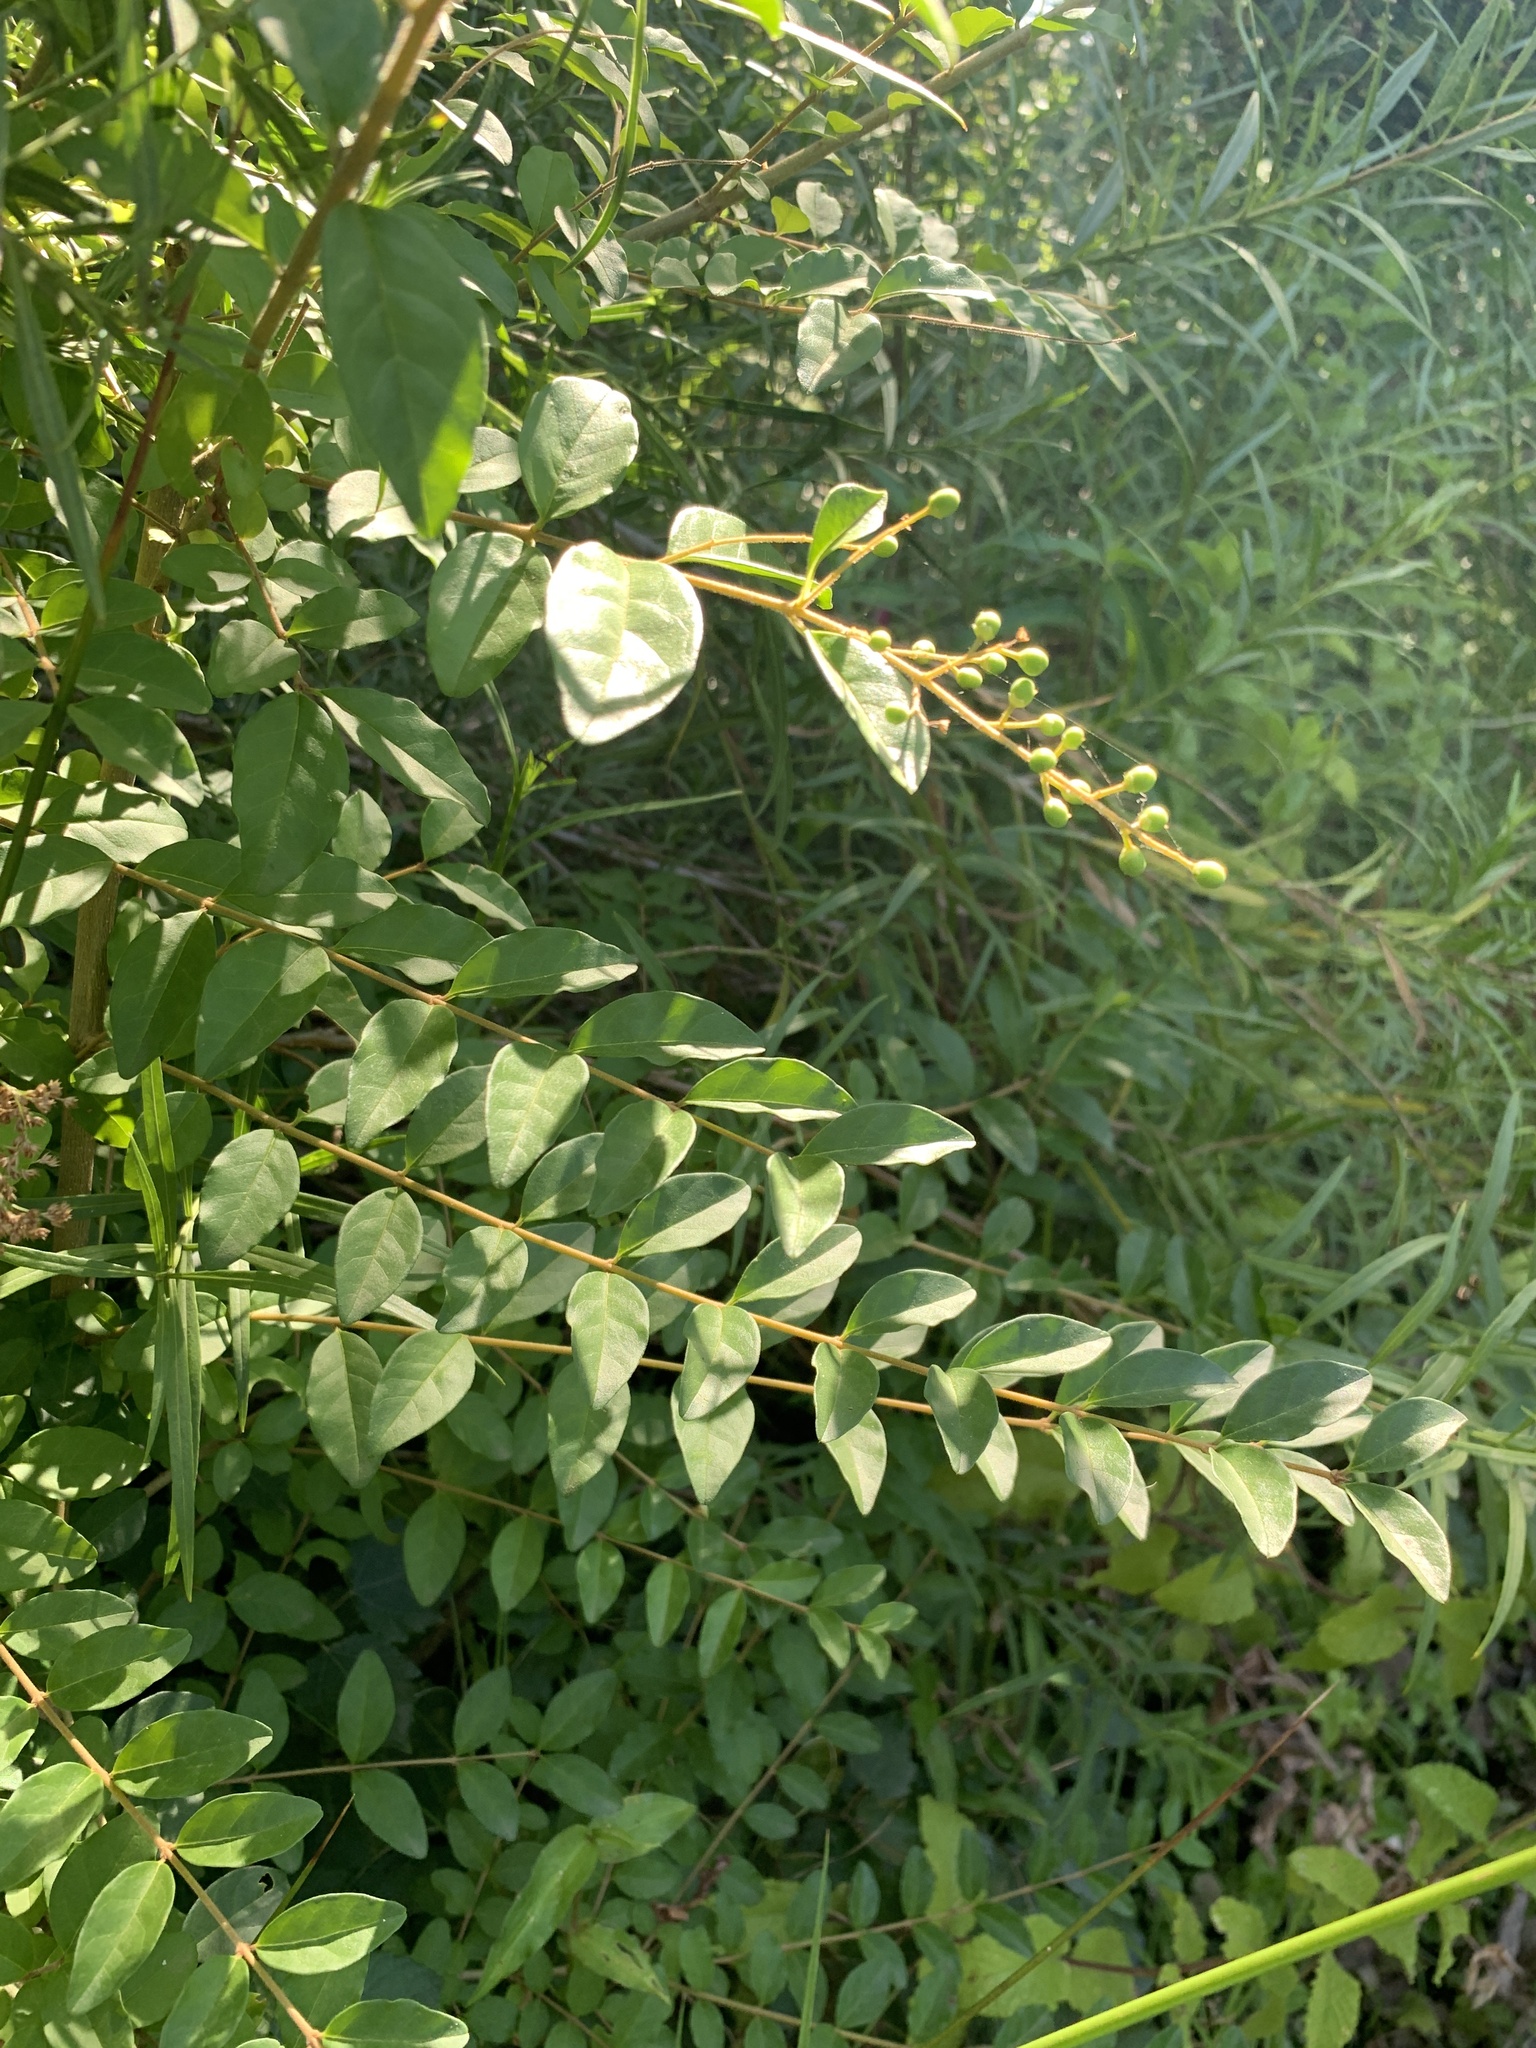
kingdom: Plantae
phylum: Tracheophyta
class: Magnoliopsida
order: Lamiales
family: Oleaceae
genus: Ligustrum
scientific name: Ligustrum sinense
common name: Chinese privet
